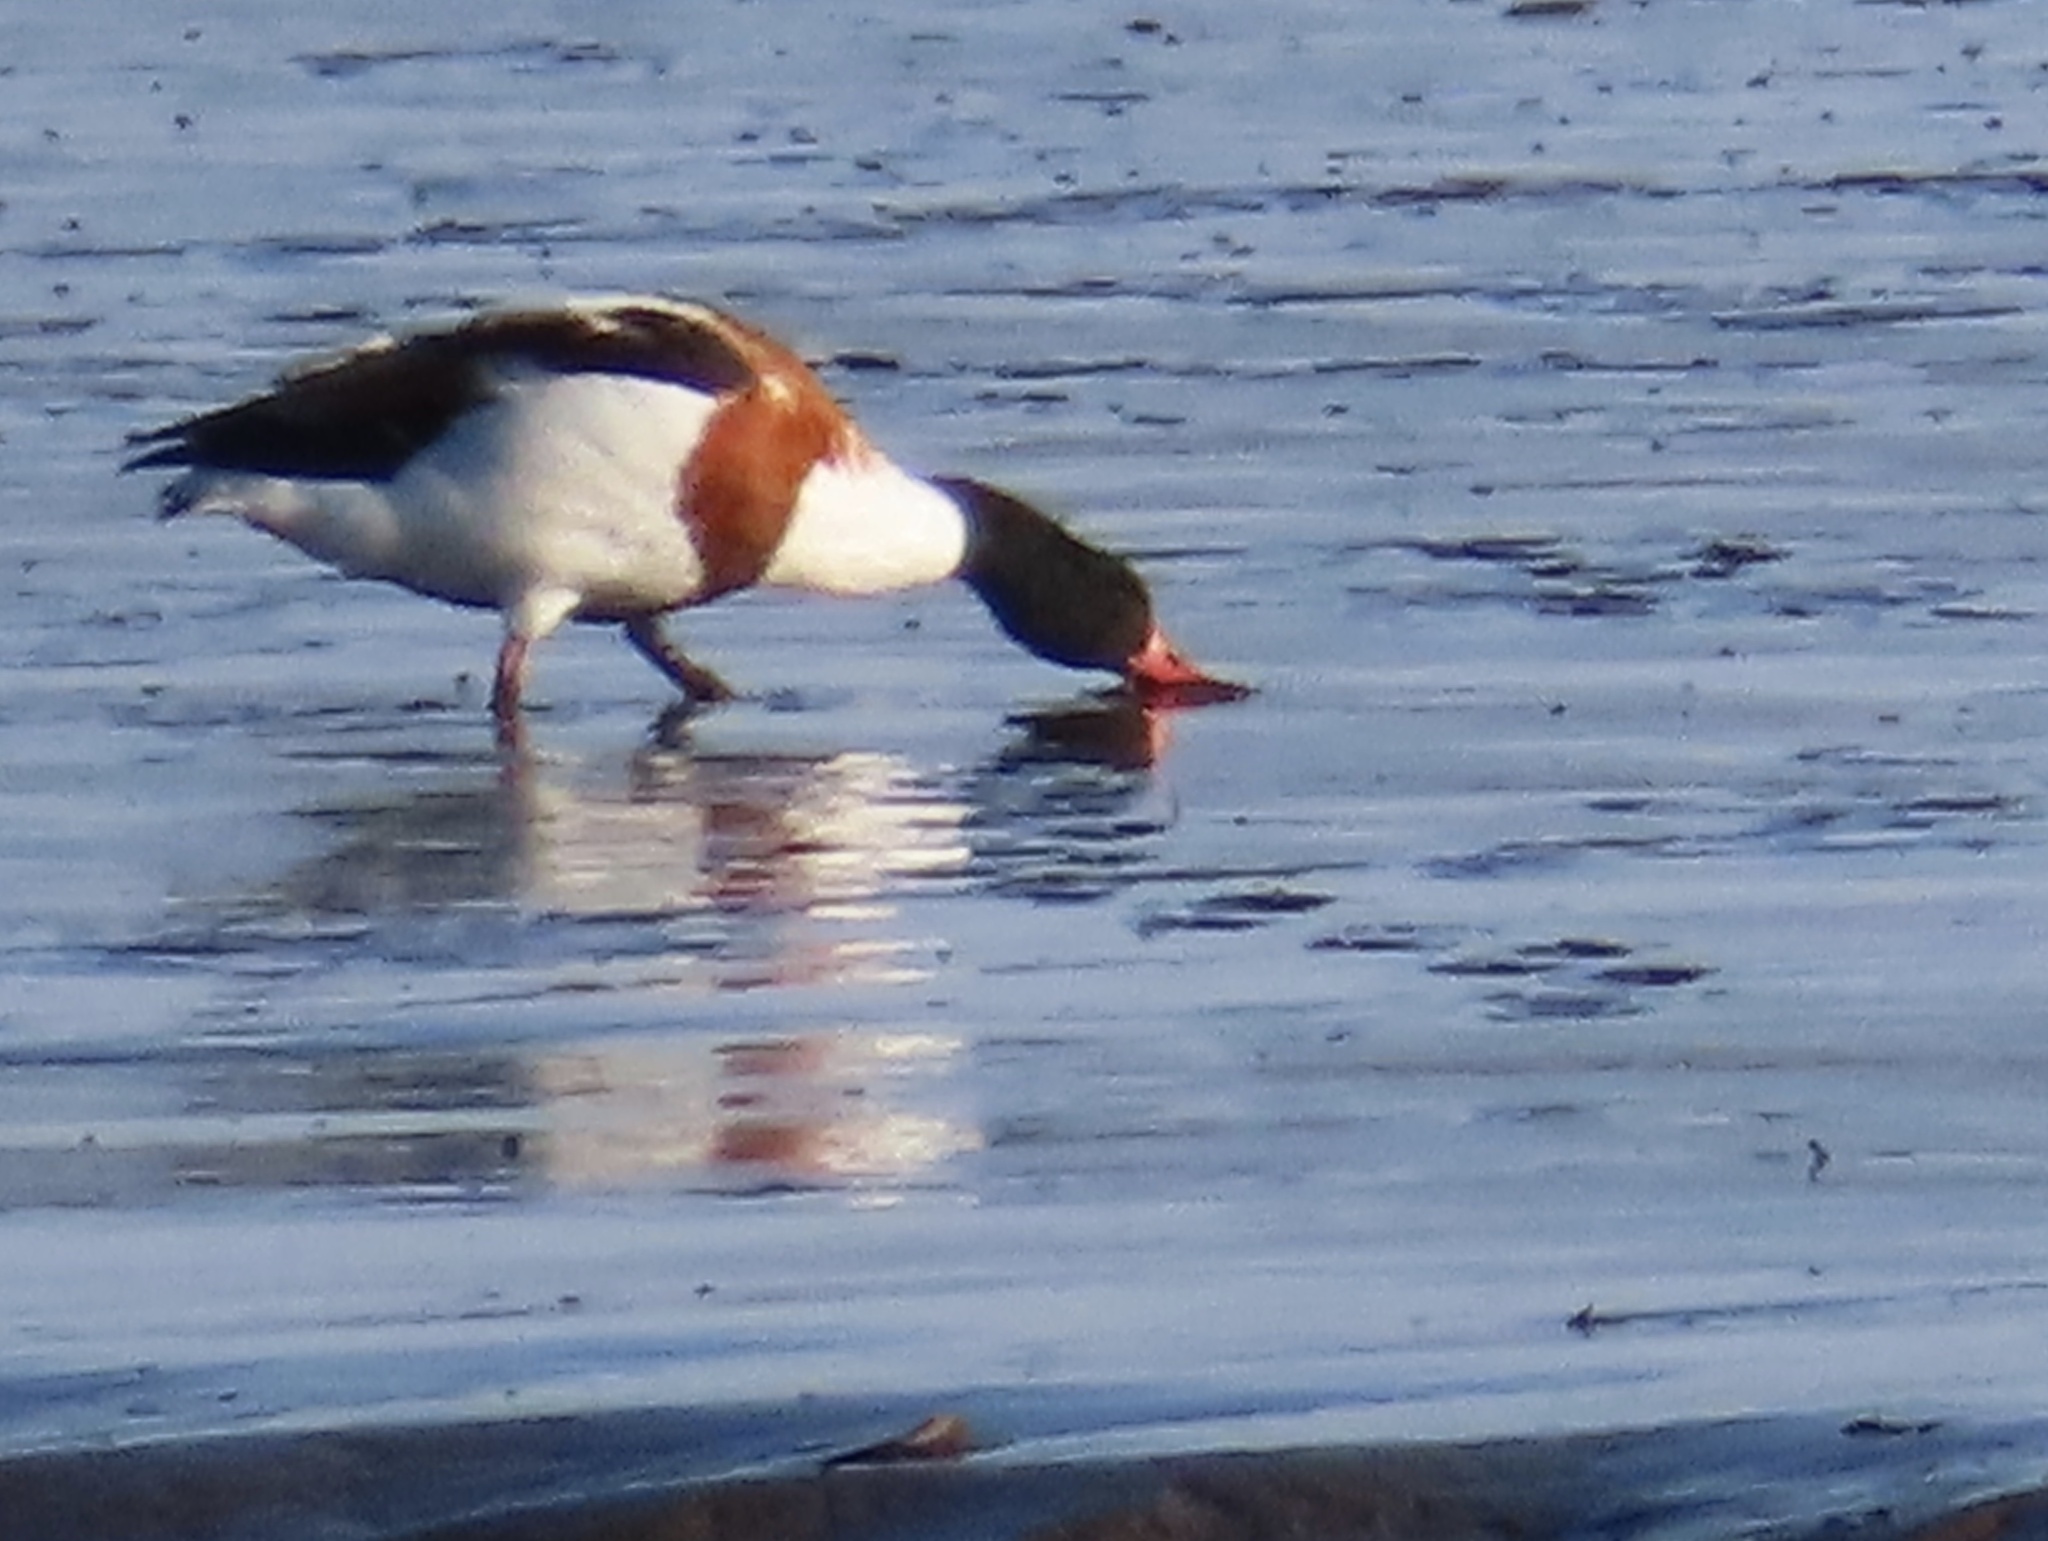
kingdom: Animalia
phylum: Chordata
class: Aves
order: Anseriformes
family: Anatidae
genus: Tadorna
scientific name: Tadorna tadorna
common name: Common shelduck
